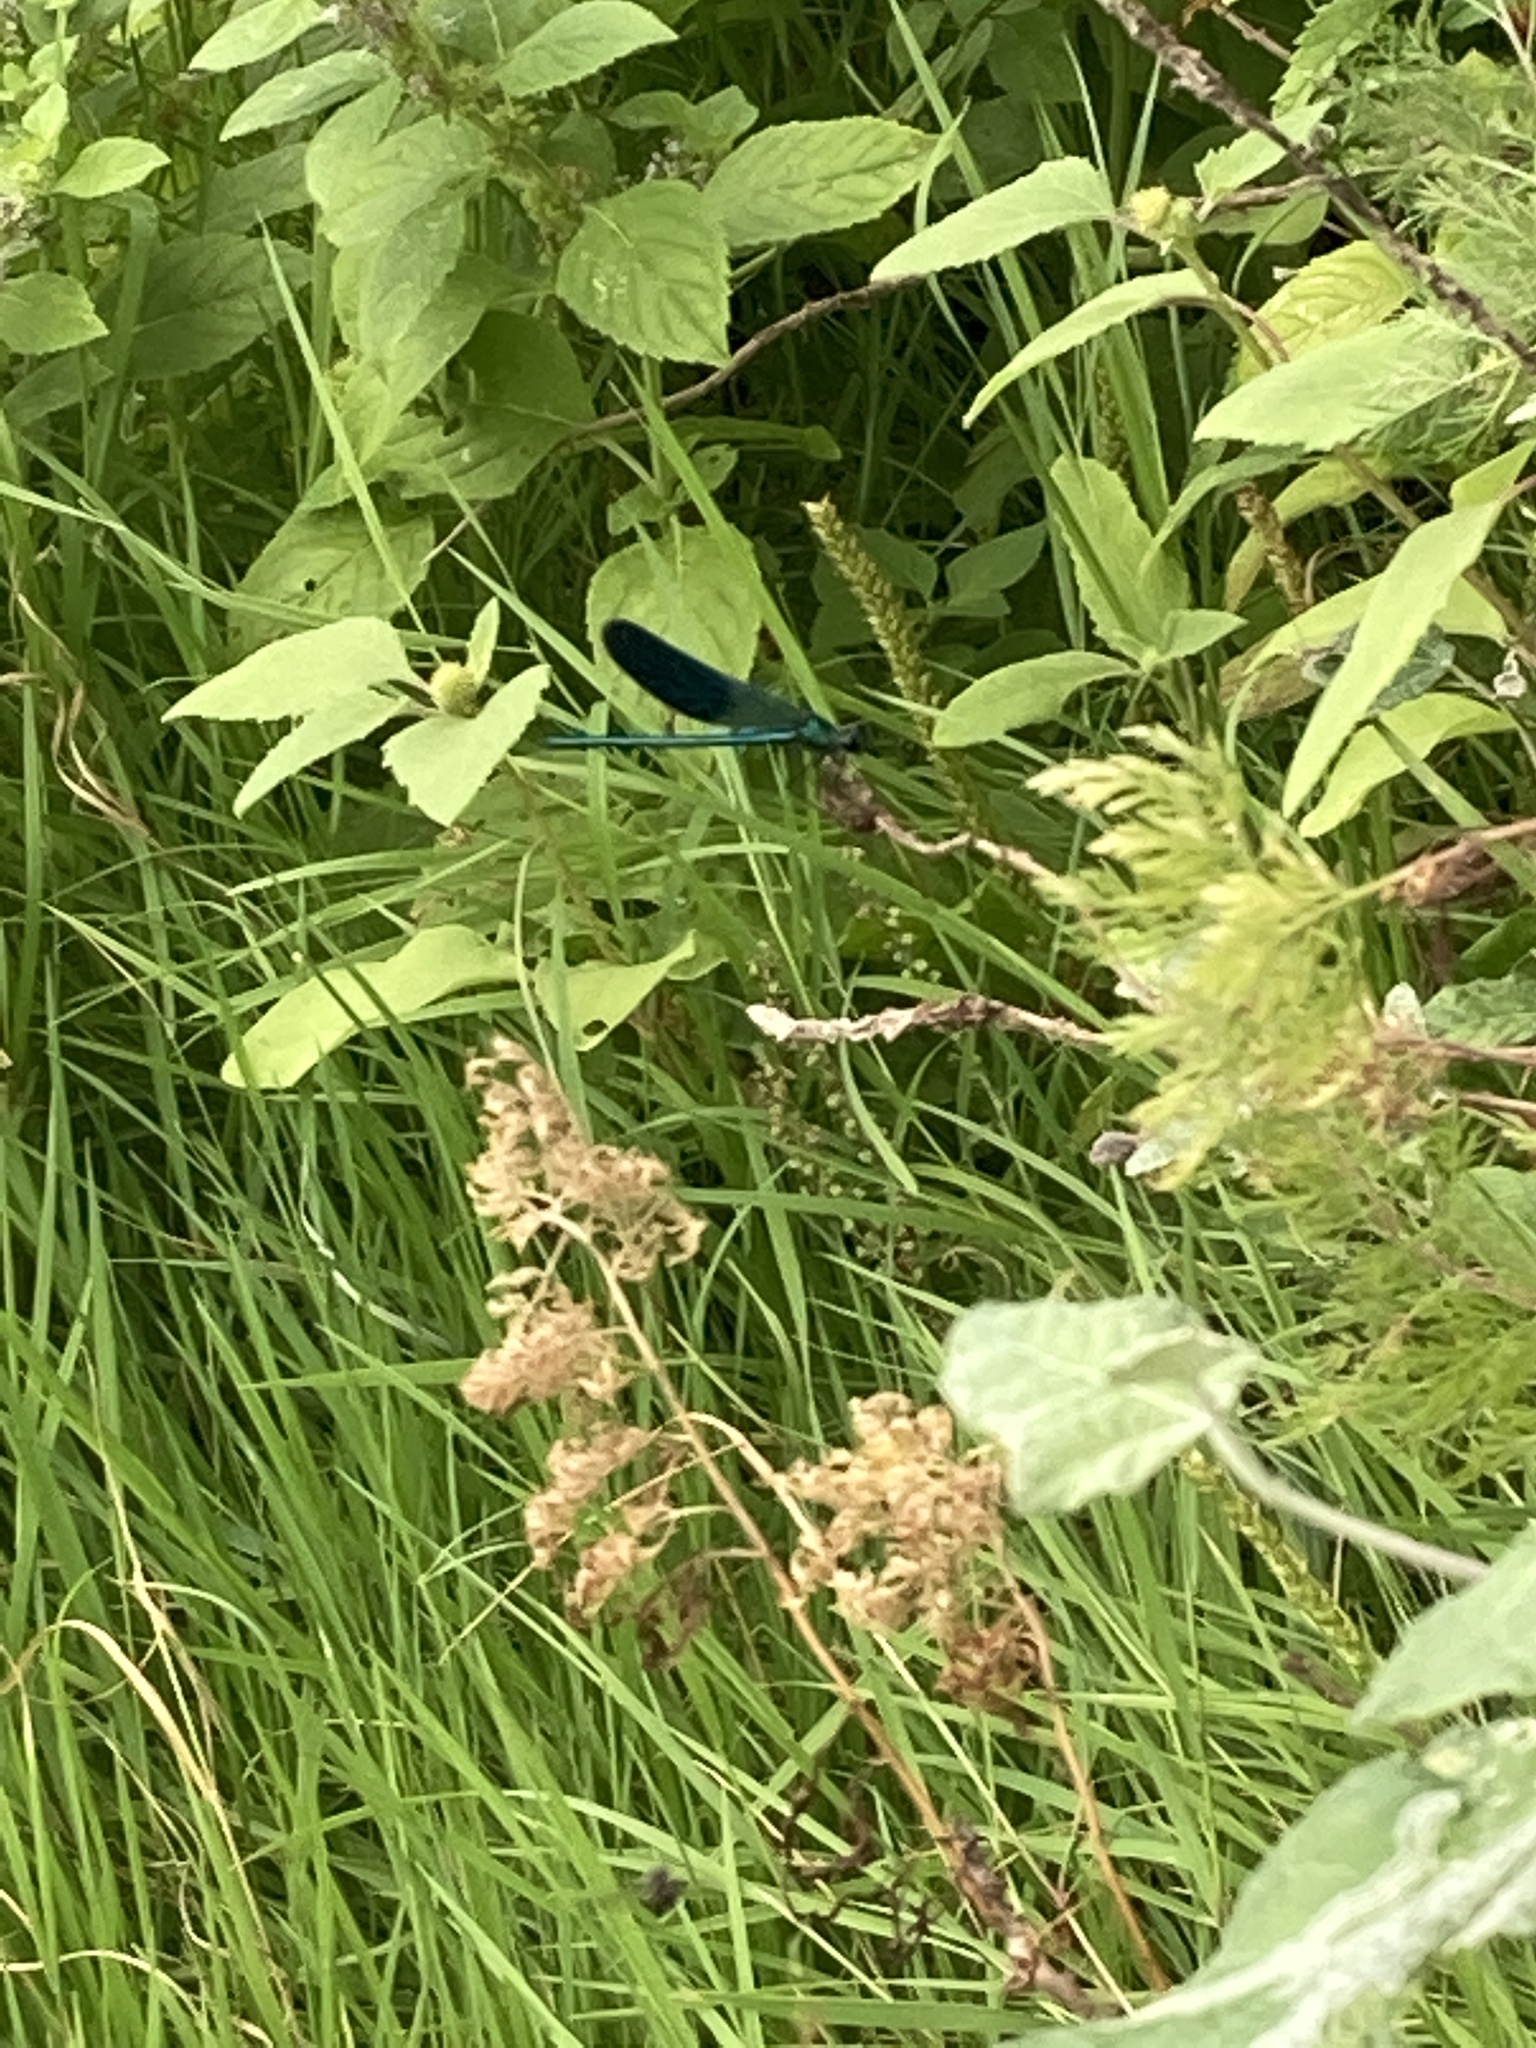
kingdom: Animalia
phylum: Arthropoda
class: Insecta
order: Odonata
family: Calopterygidae
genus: Calopteryx
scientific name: Calopteryx splendens
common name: Banded demoiselle
